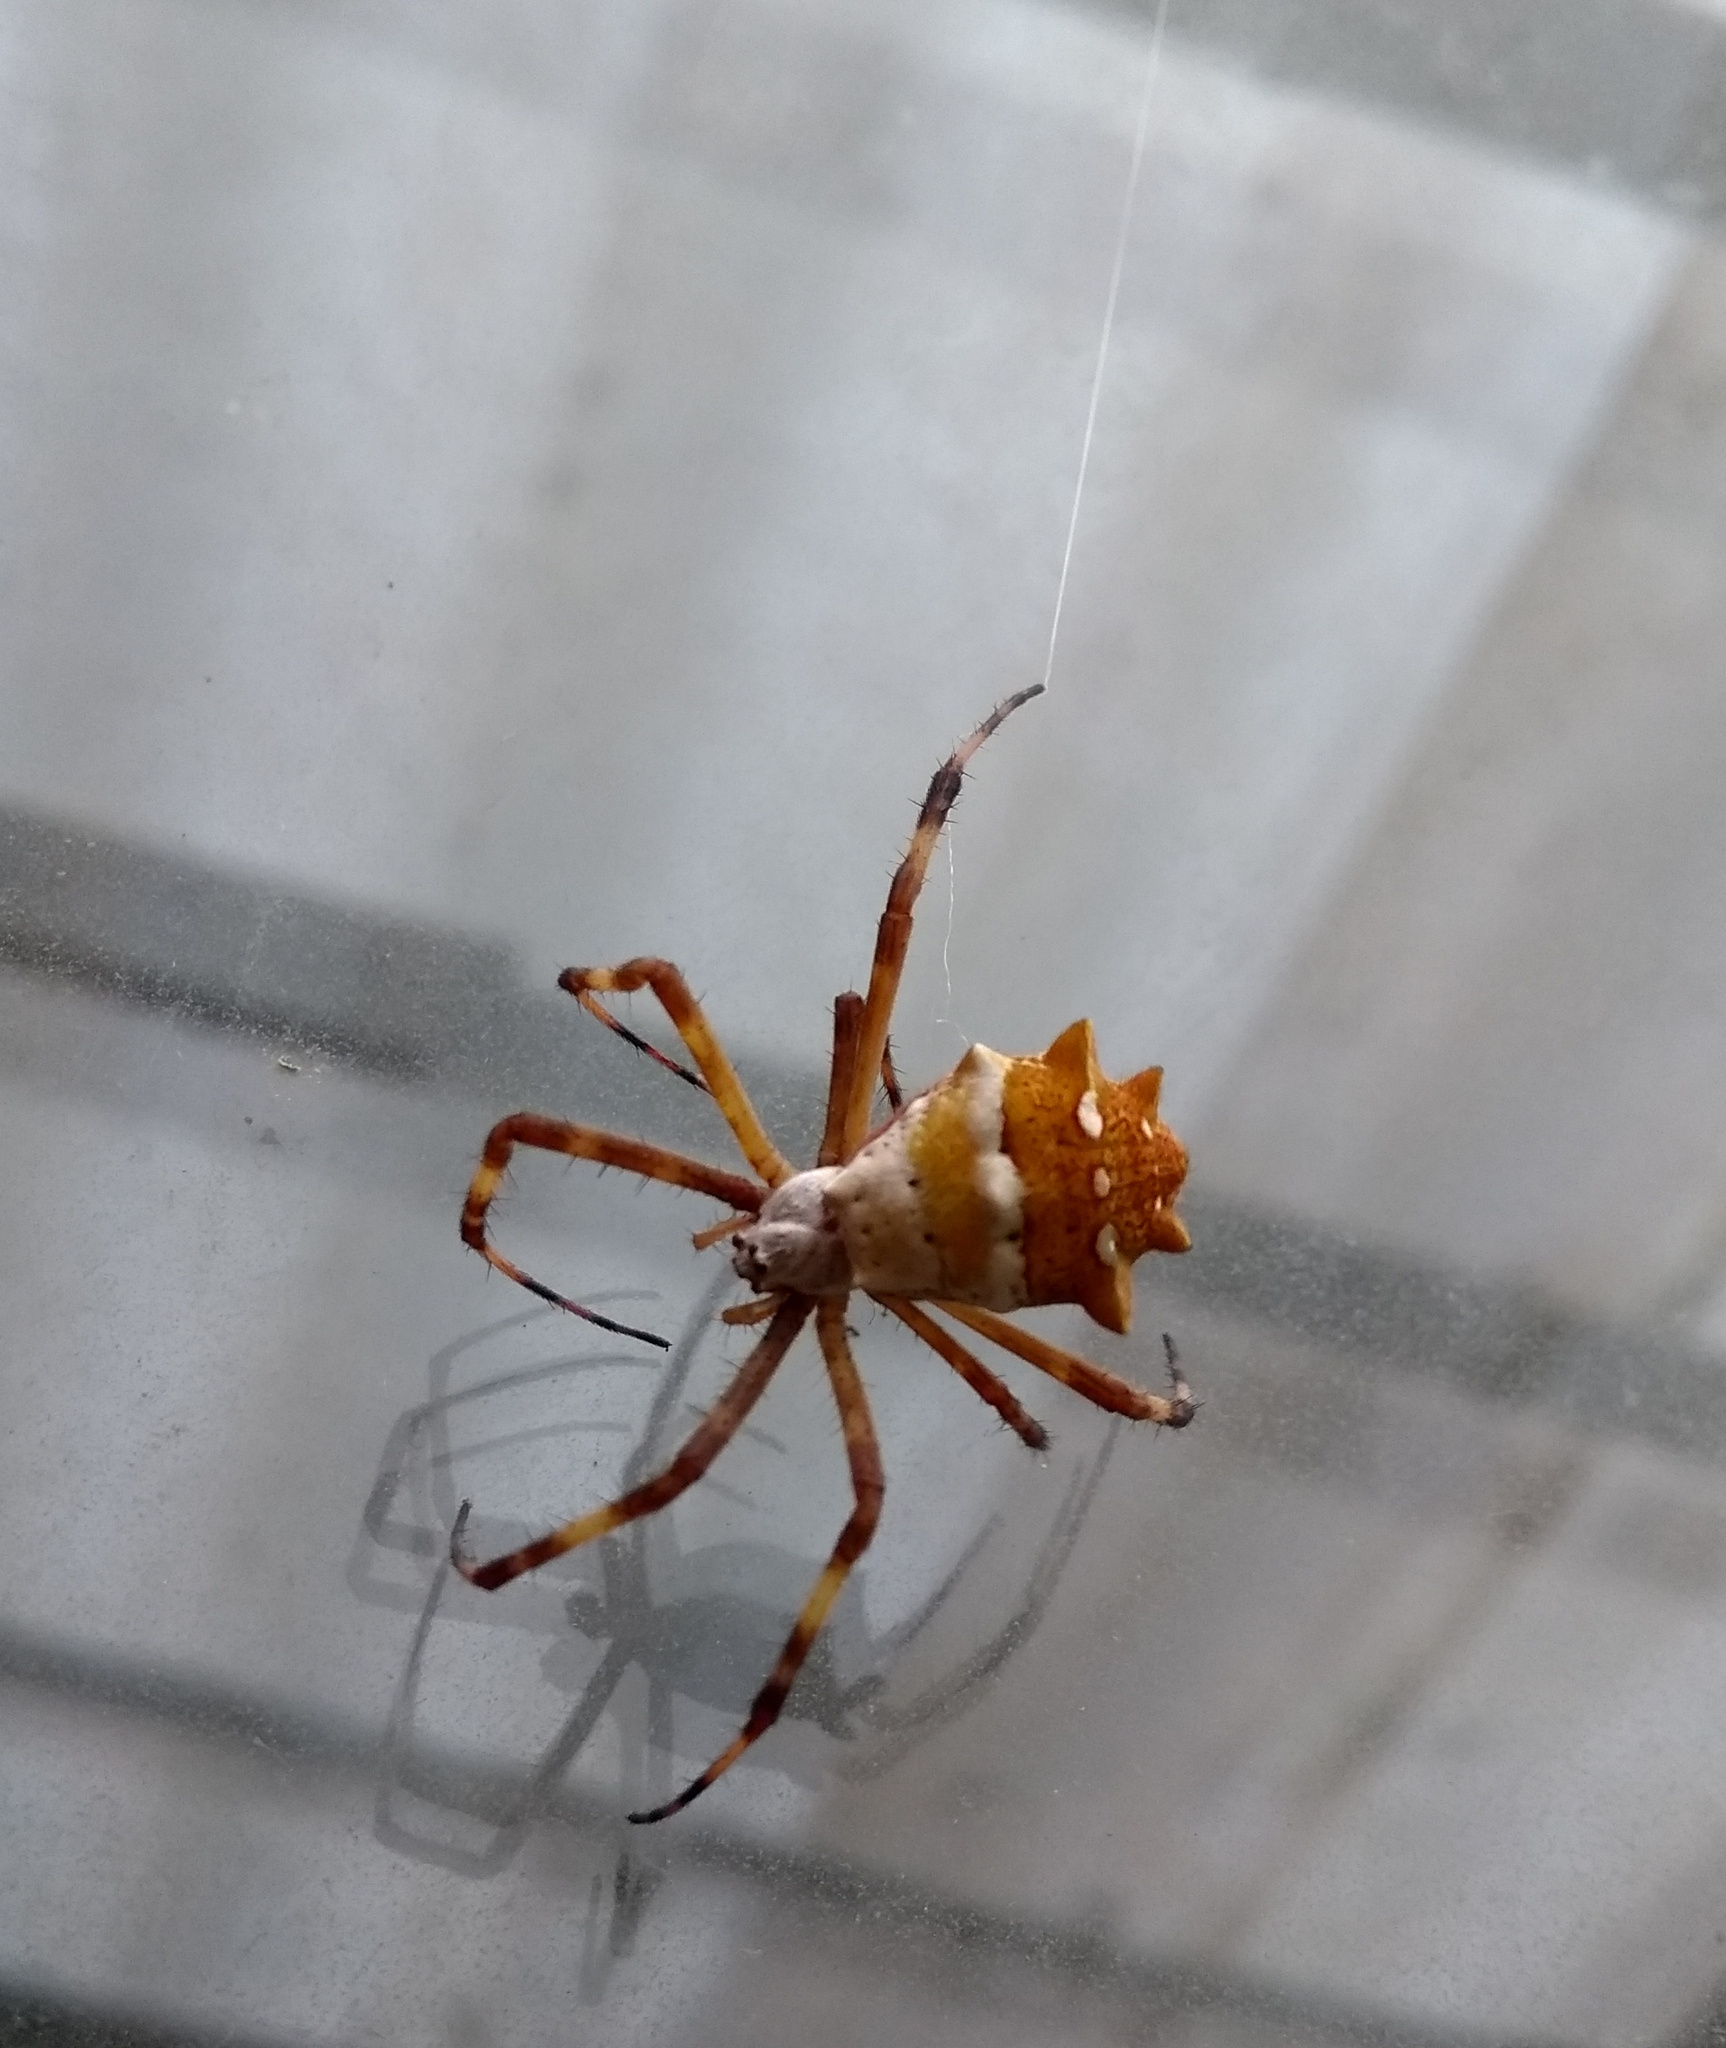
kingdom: Animalia
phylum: Arthropoda
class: Arachnida
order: Araneae
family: Araneidae
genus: Argiope
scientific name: Argiope argentata
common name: Orb weavers
